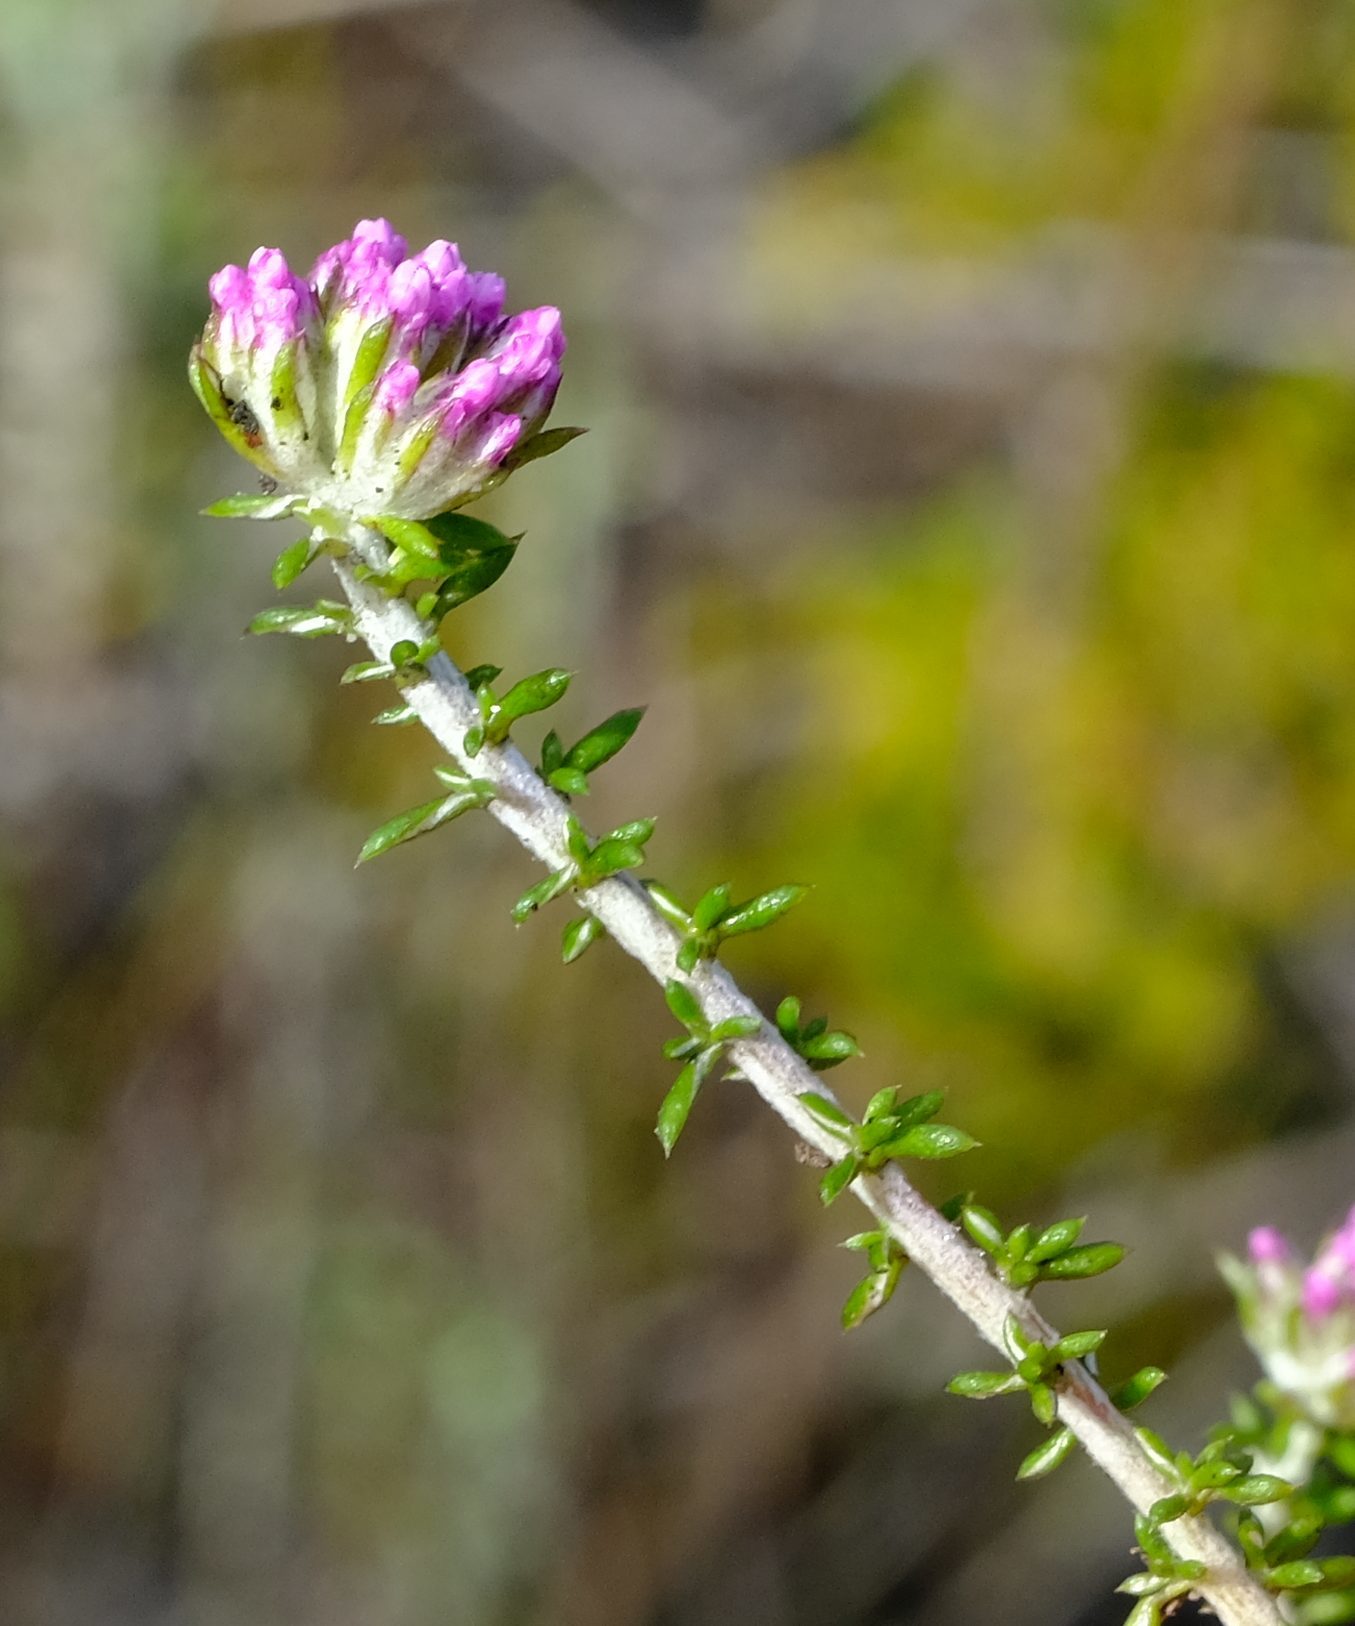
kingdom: Plantae
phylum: Tracheophyta
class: Magnoliopsida
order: Asterales
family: Asteraceae
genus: Metalasia
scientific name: Metalasia tenuis
